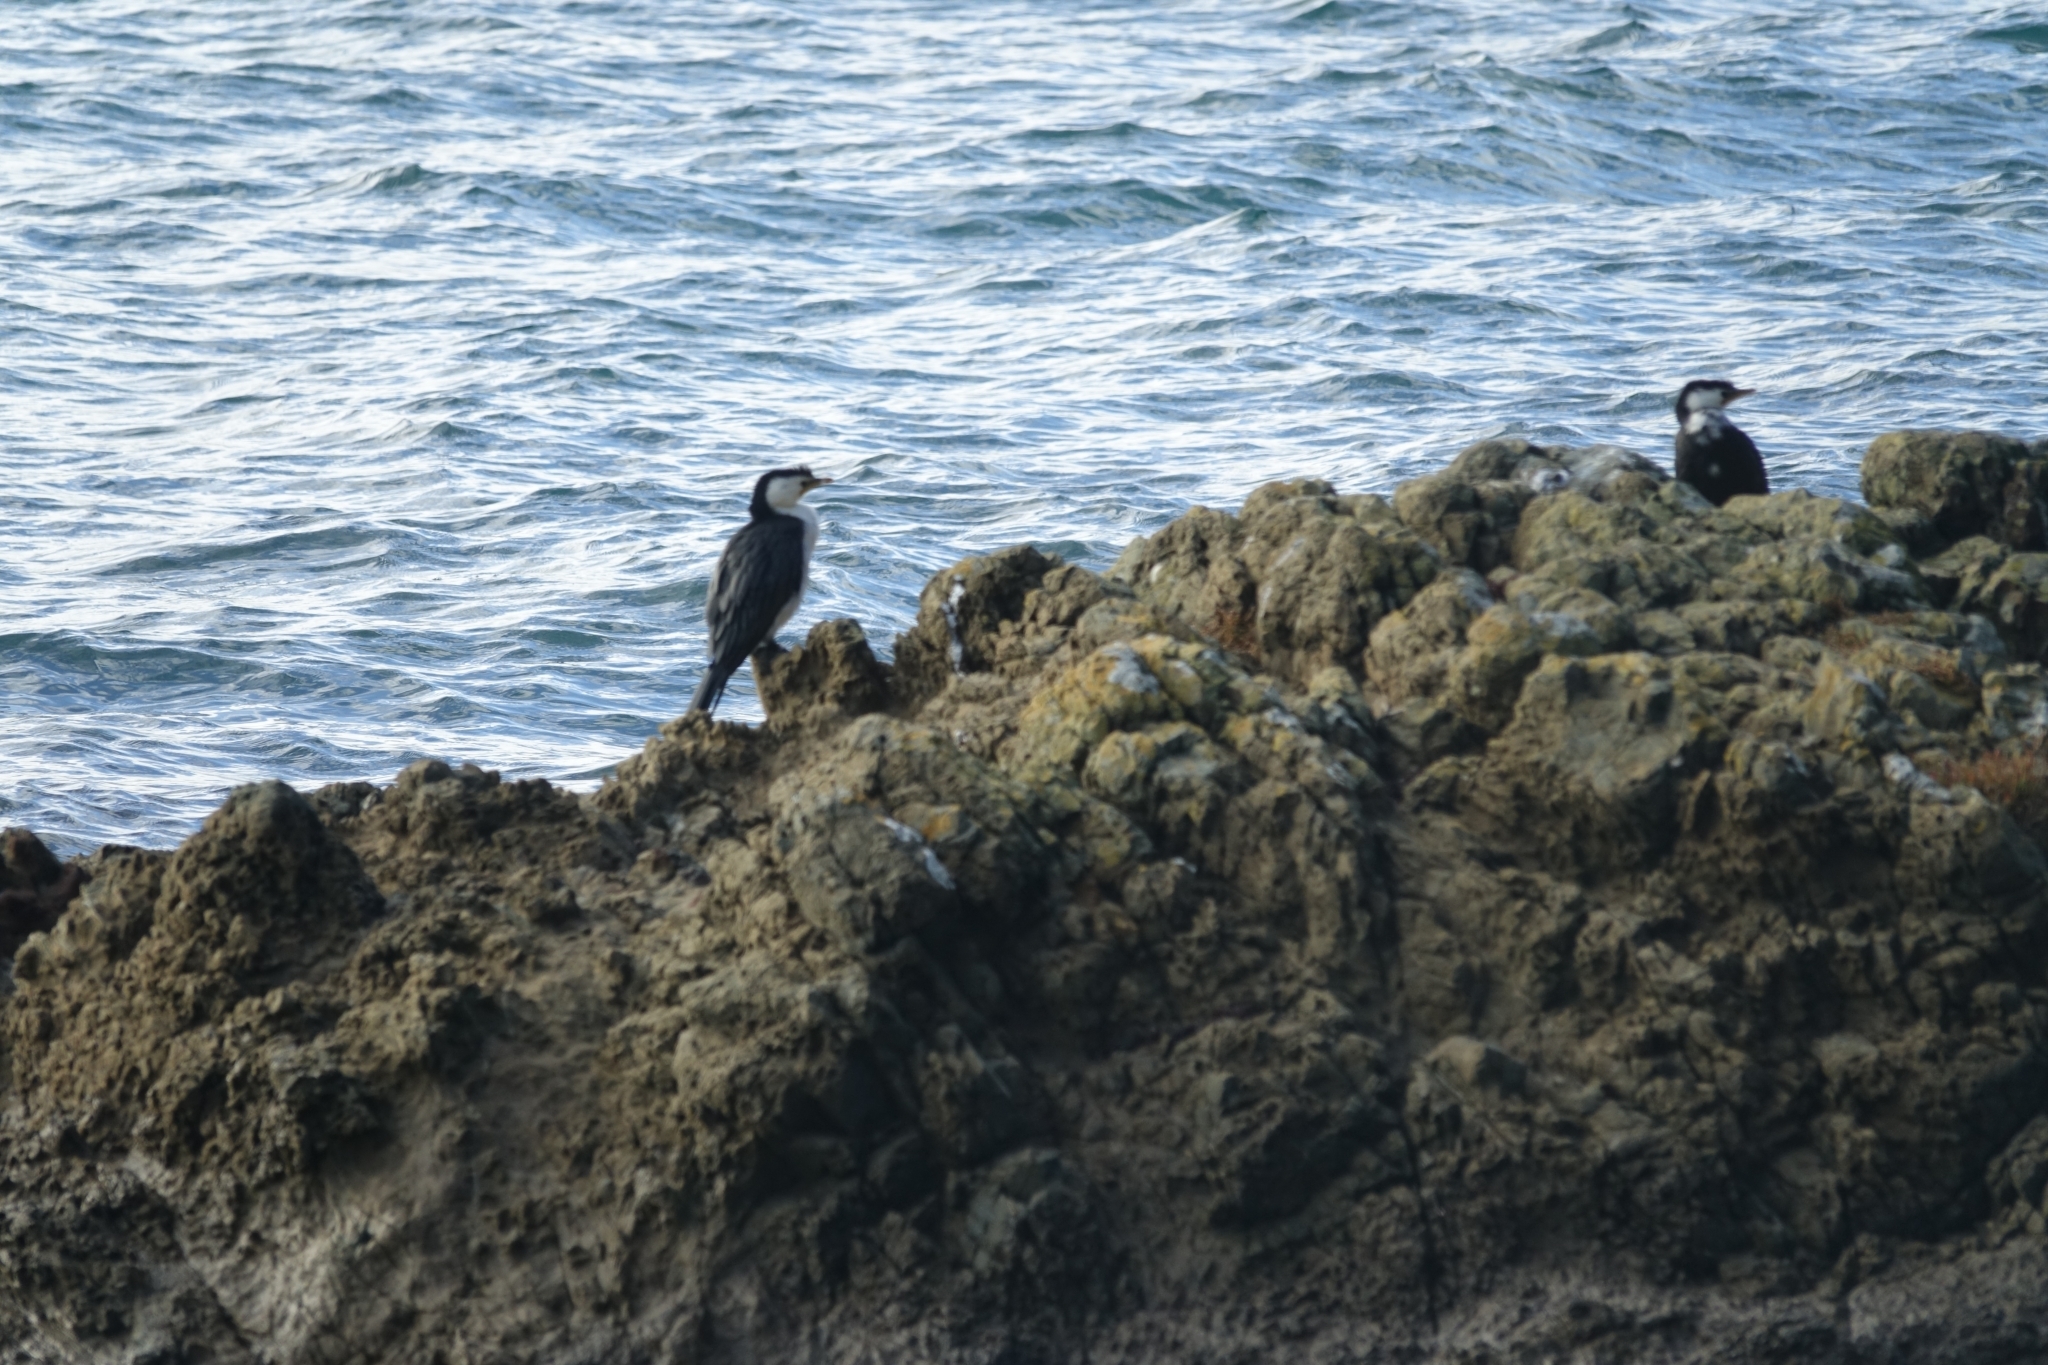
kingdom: Animalia
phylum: Chordata
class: Aves
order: Suliformes
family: Phalacrocoracidae
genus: Microcarbo
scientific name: Microcarbo melanoleucos
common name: Little pied cormorant
